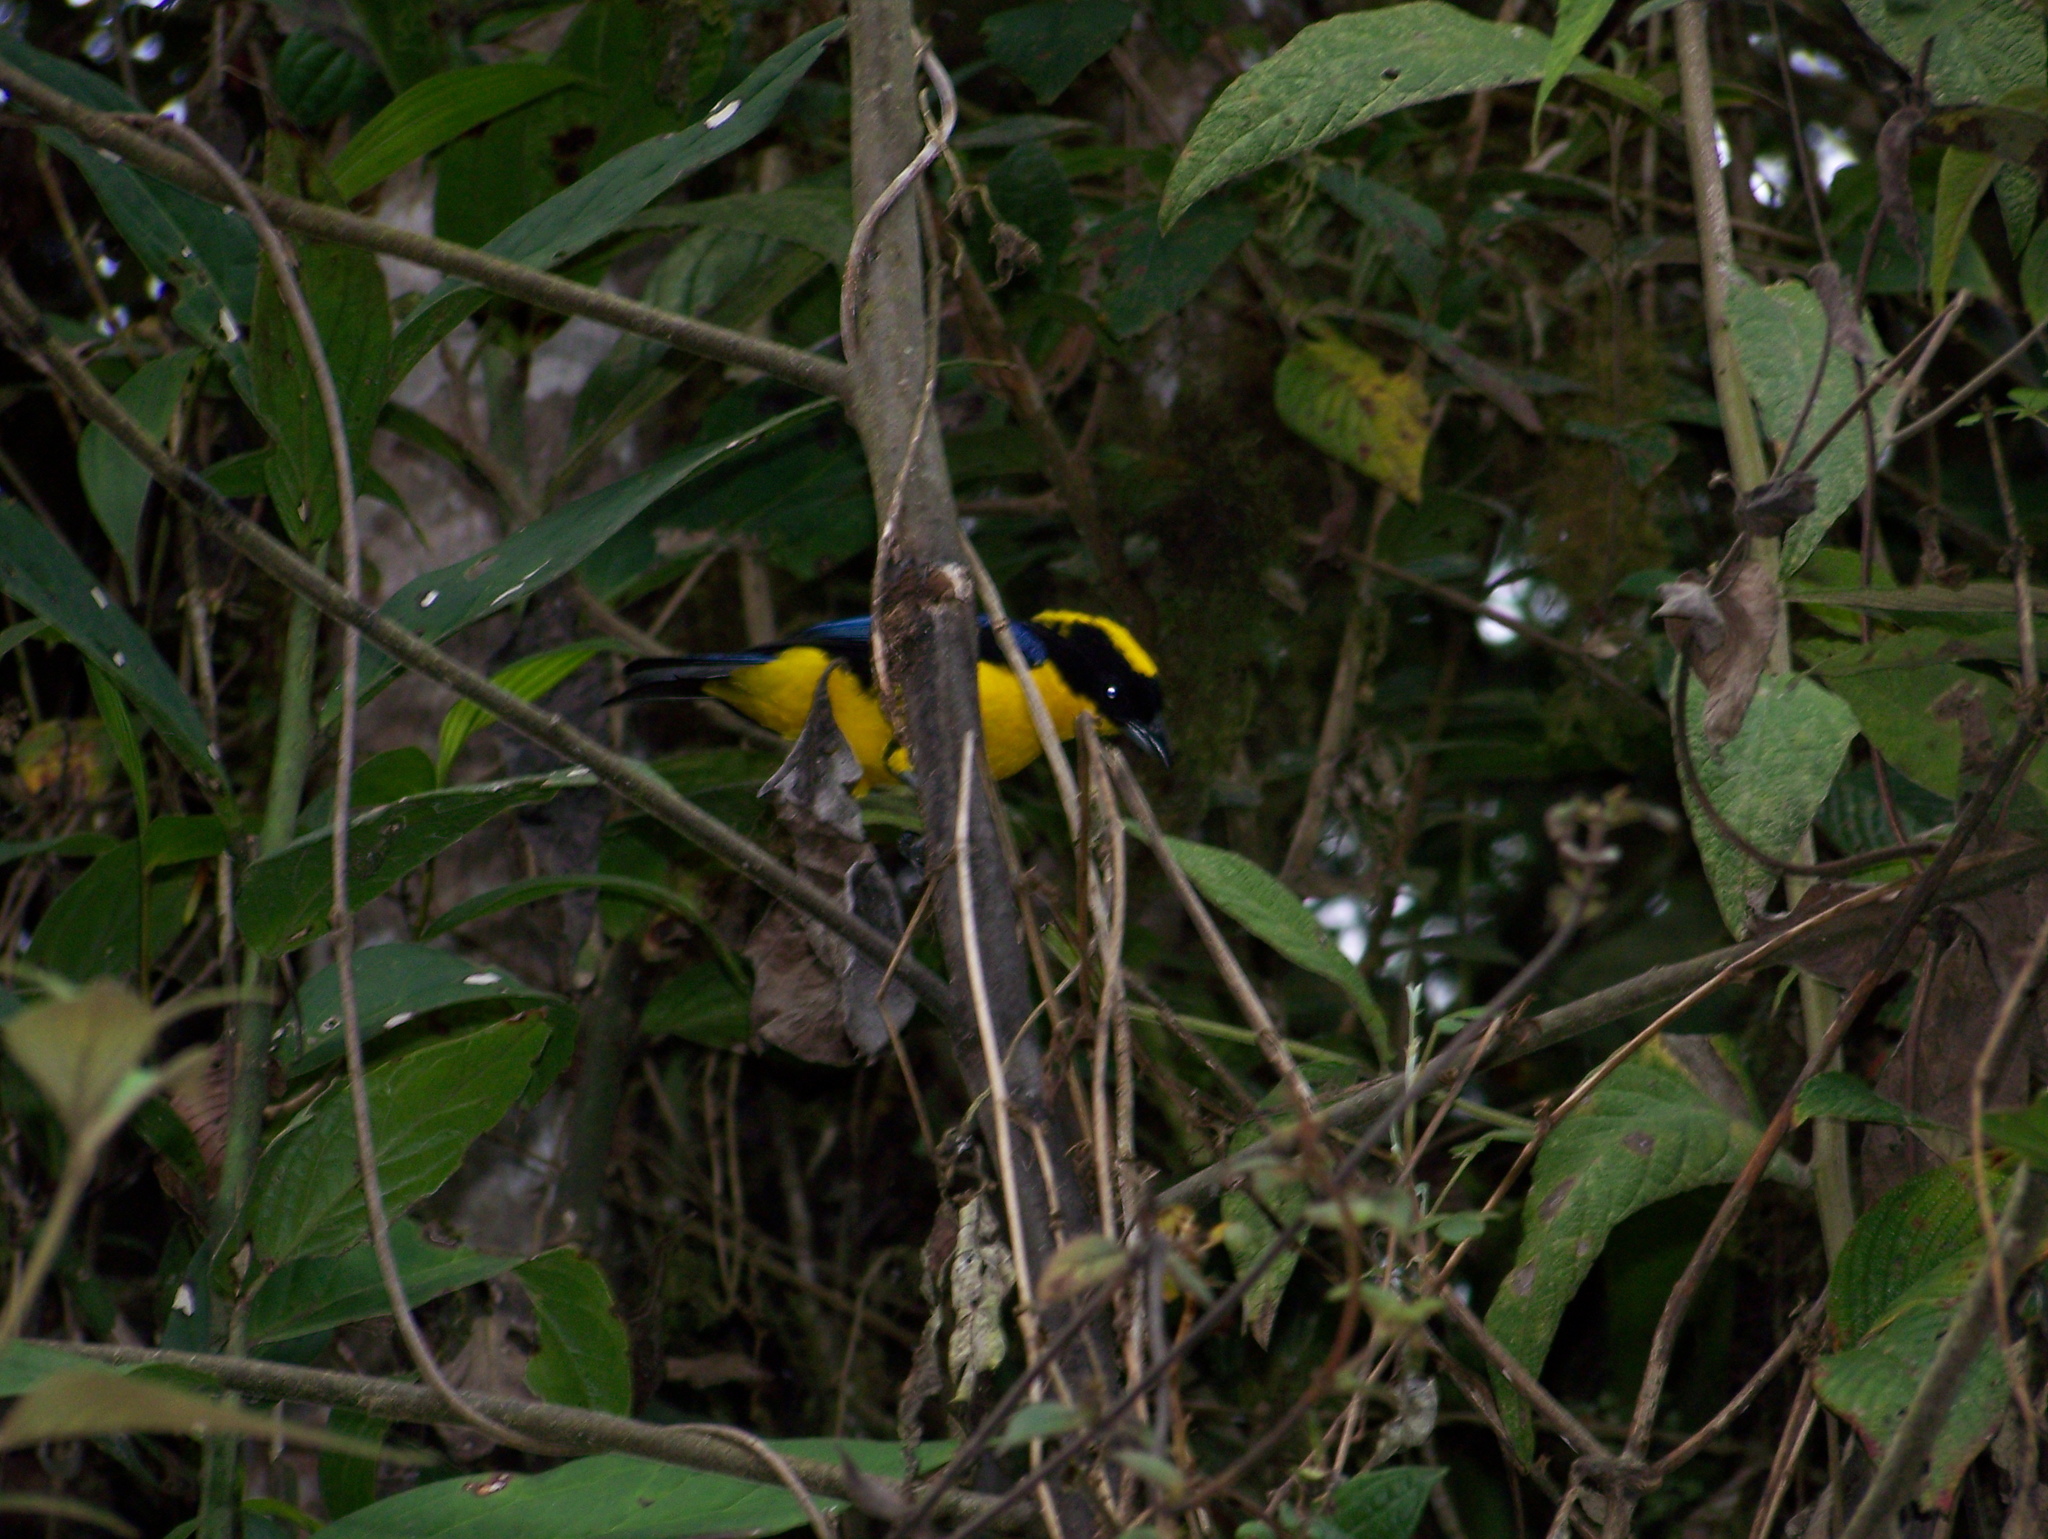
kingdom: Animalia
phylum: Chordata
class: Aves
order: Passeriformes
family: Thraupidae
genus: Anisognathus
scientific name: Anisognathus somptuosus
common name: Blue-winged mountain-tanager
